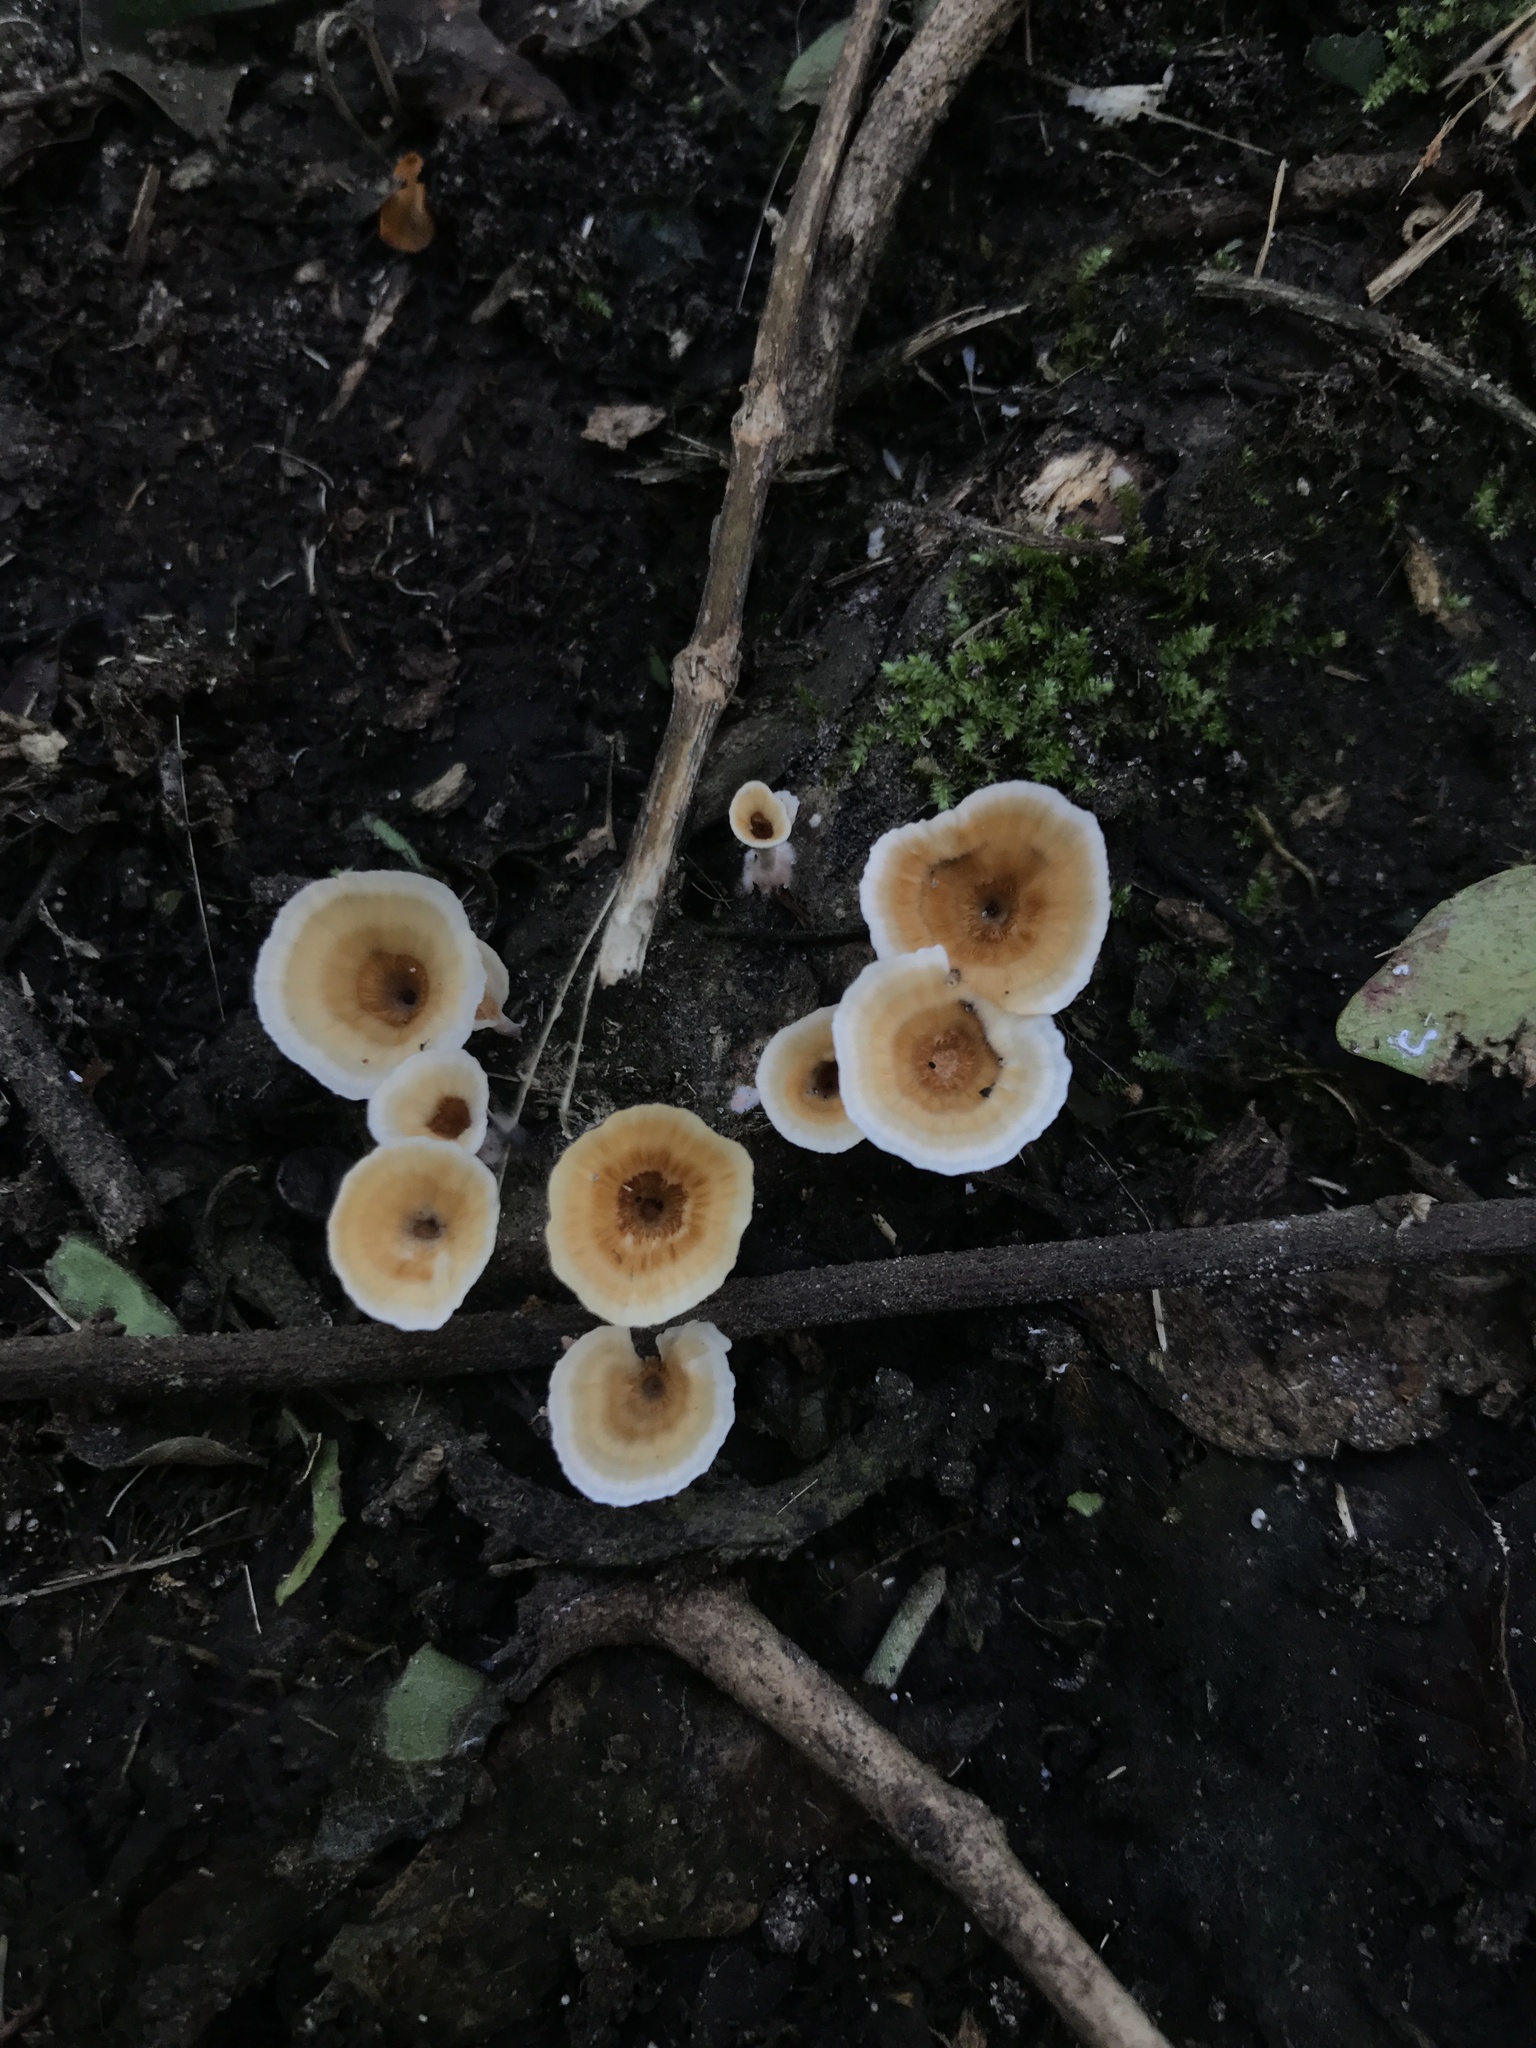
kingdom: Fungi
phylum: Basidiomycota
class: Agaricomycetes
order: Polyporales
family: Podoscyphaceae
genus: Podoscypha
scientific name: Podoscypha petalodes
